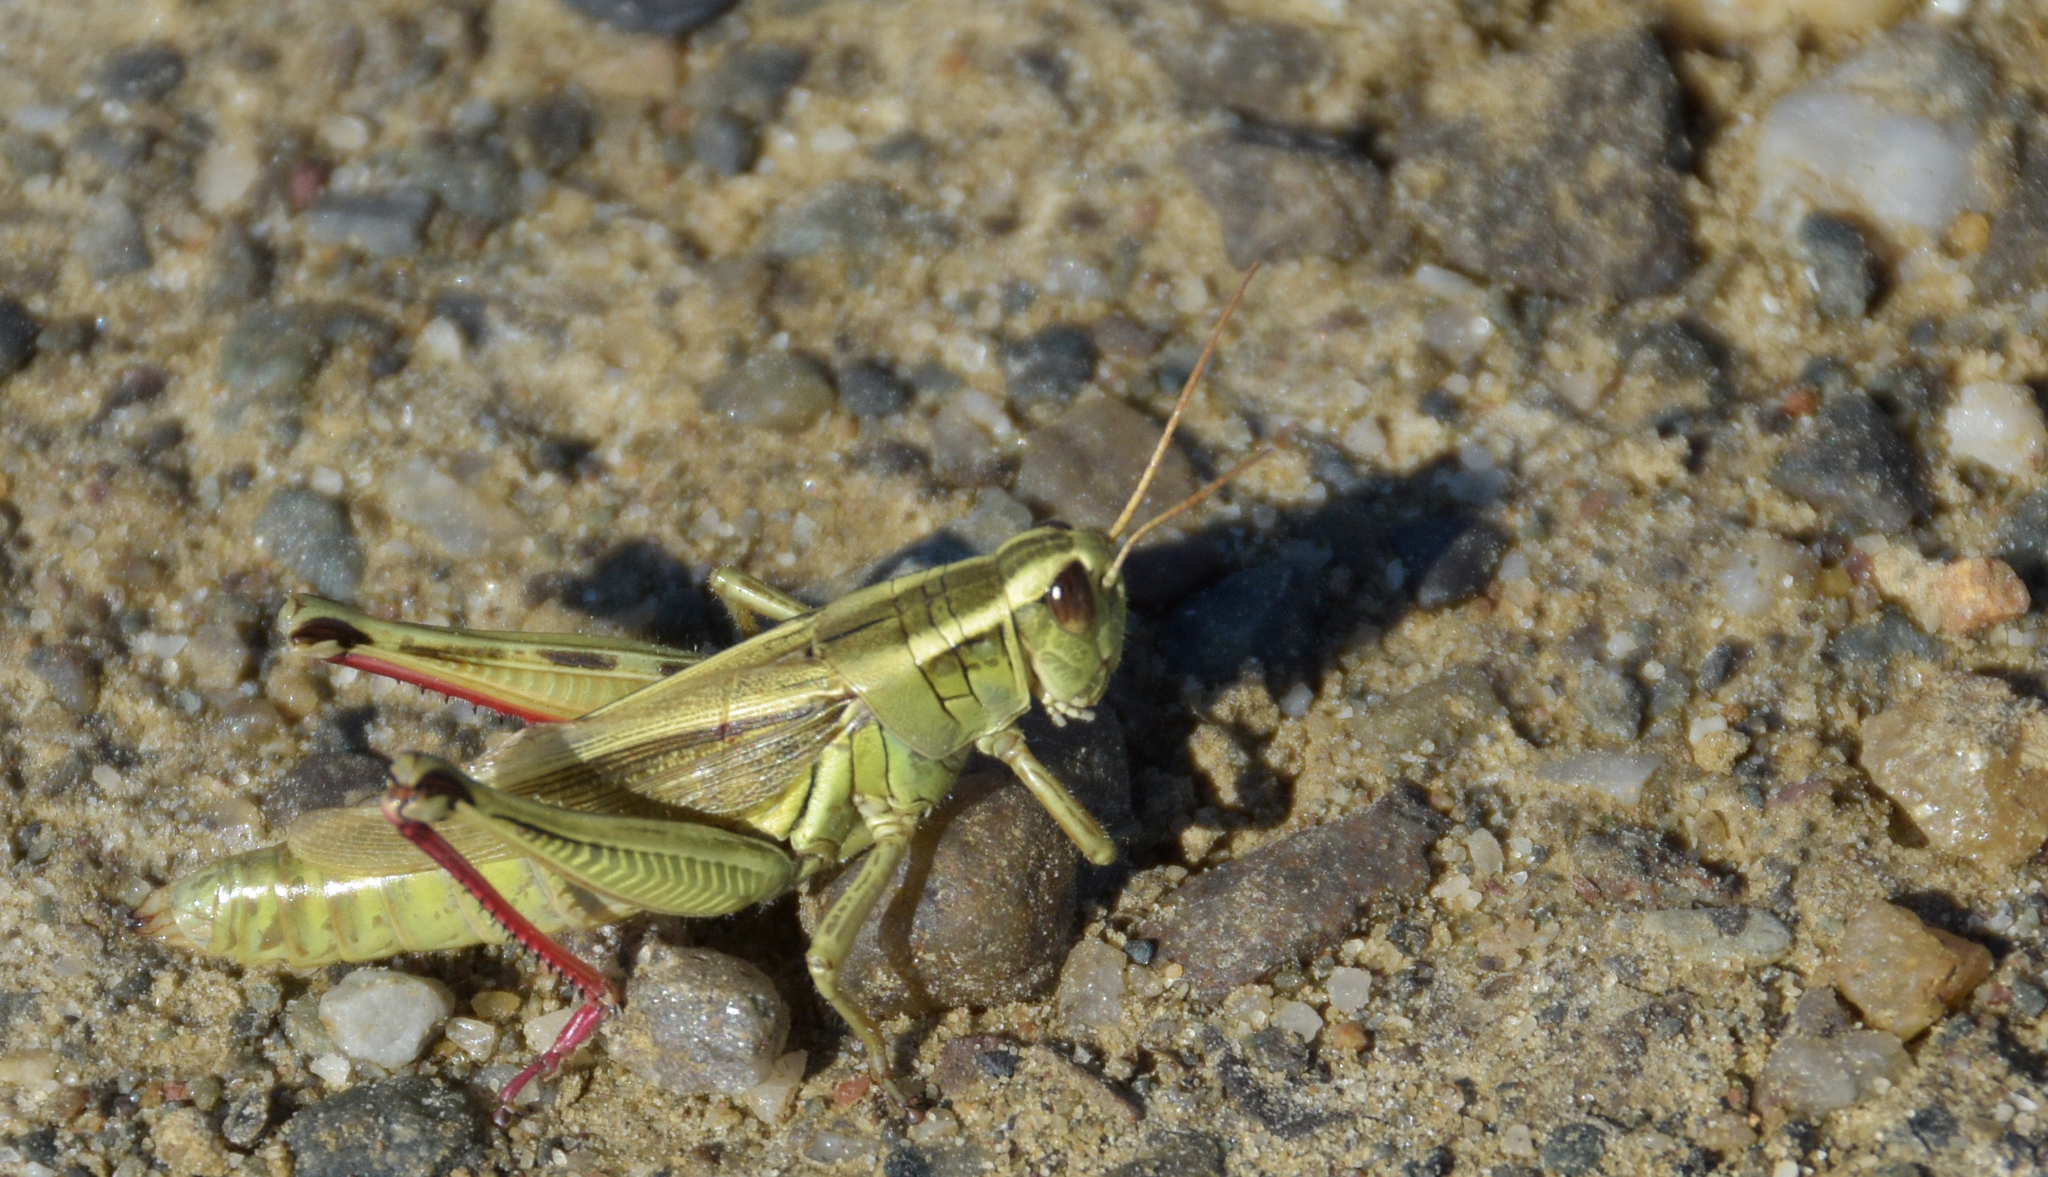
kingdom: Animalia
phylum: Arthropoda
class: Insecta
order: Orthoptera
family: Acrididae
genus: Melanoplus
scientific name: Melanoplus bivittatus
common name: Two-striped grasshopper
